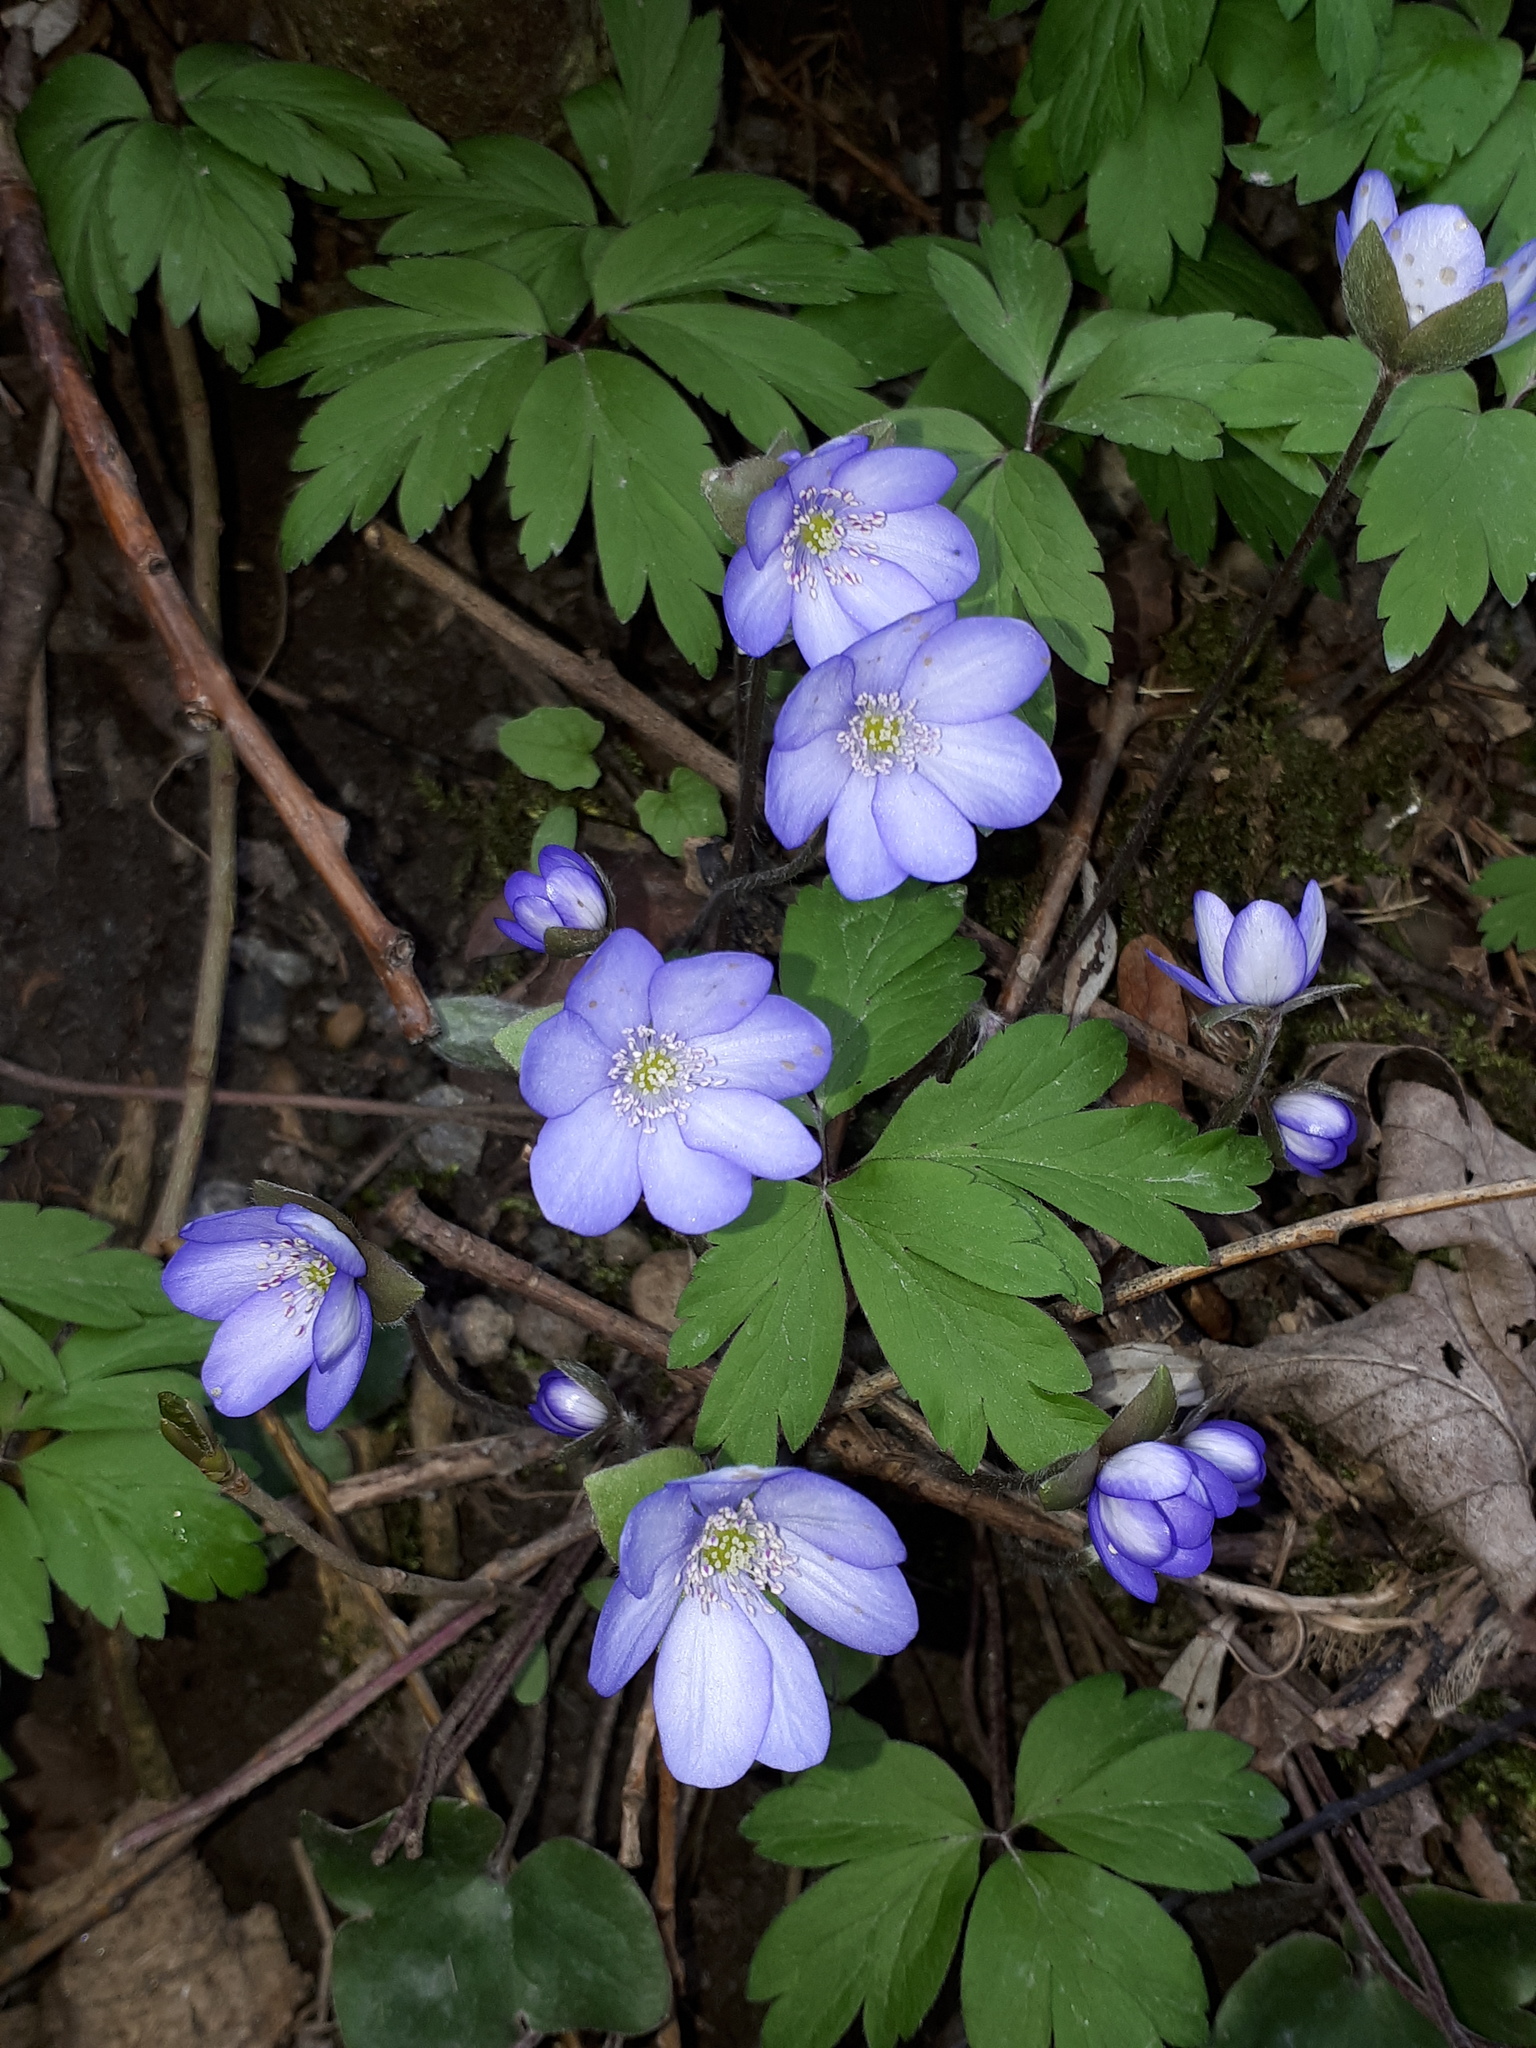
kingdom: Plantae
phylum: Tracheophyta
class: Magnoliopsida
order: Ranunculales
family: Ranunculaceae
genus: Hepatica
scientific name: Hepatica nobilis
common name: Liverleaf
